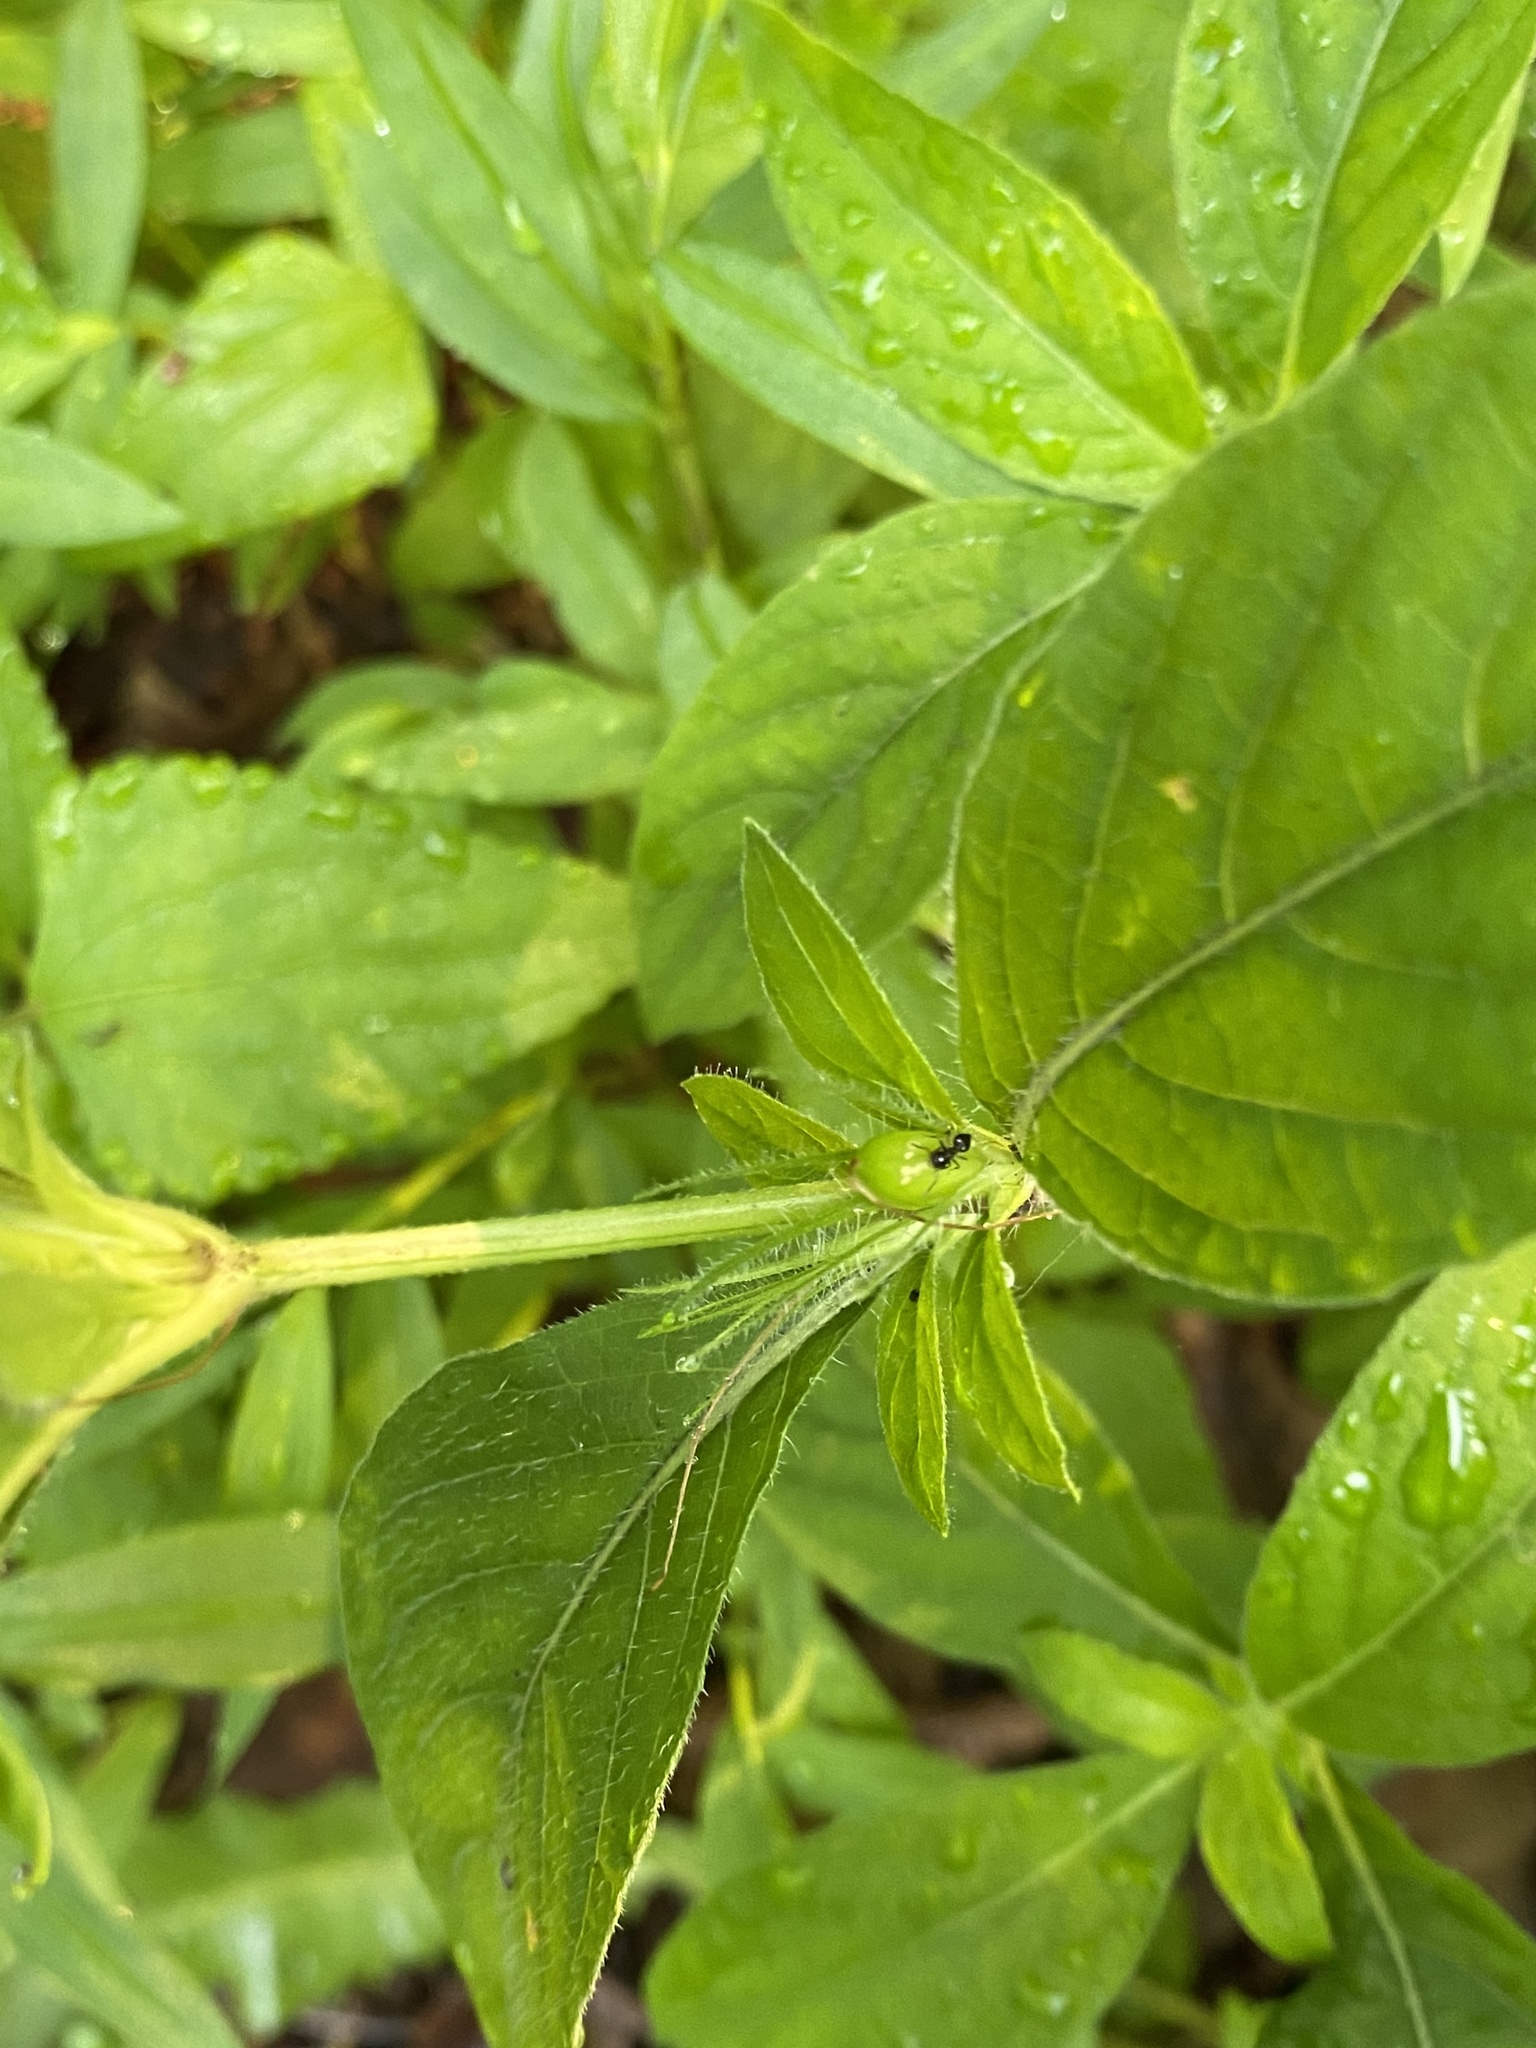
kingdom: Plantae
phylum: Tracheophyta
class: Magnoliopsida
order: Lamiales
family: Acanthaceae
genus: Ruellia
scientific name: Ruellia caroliniensis
